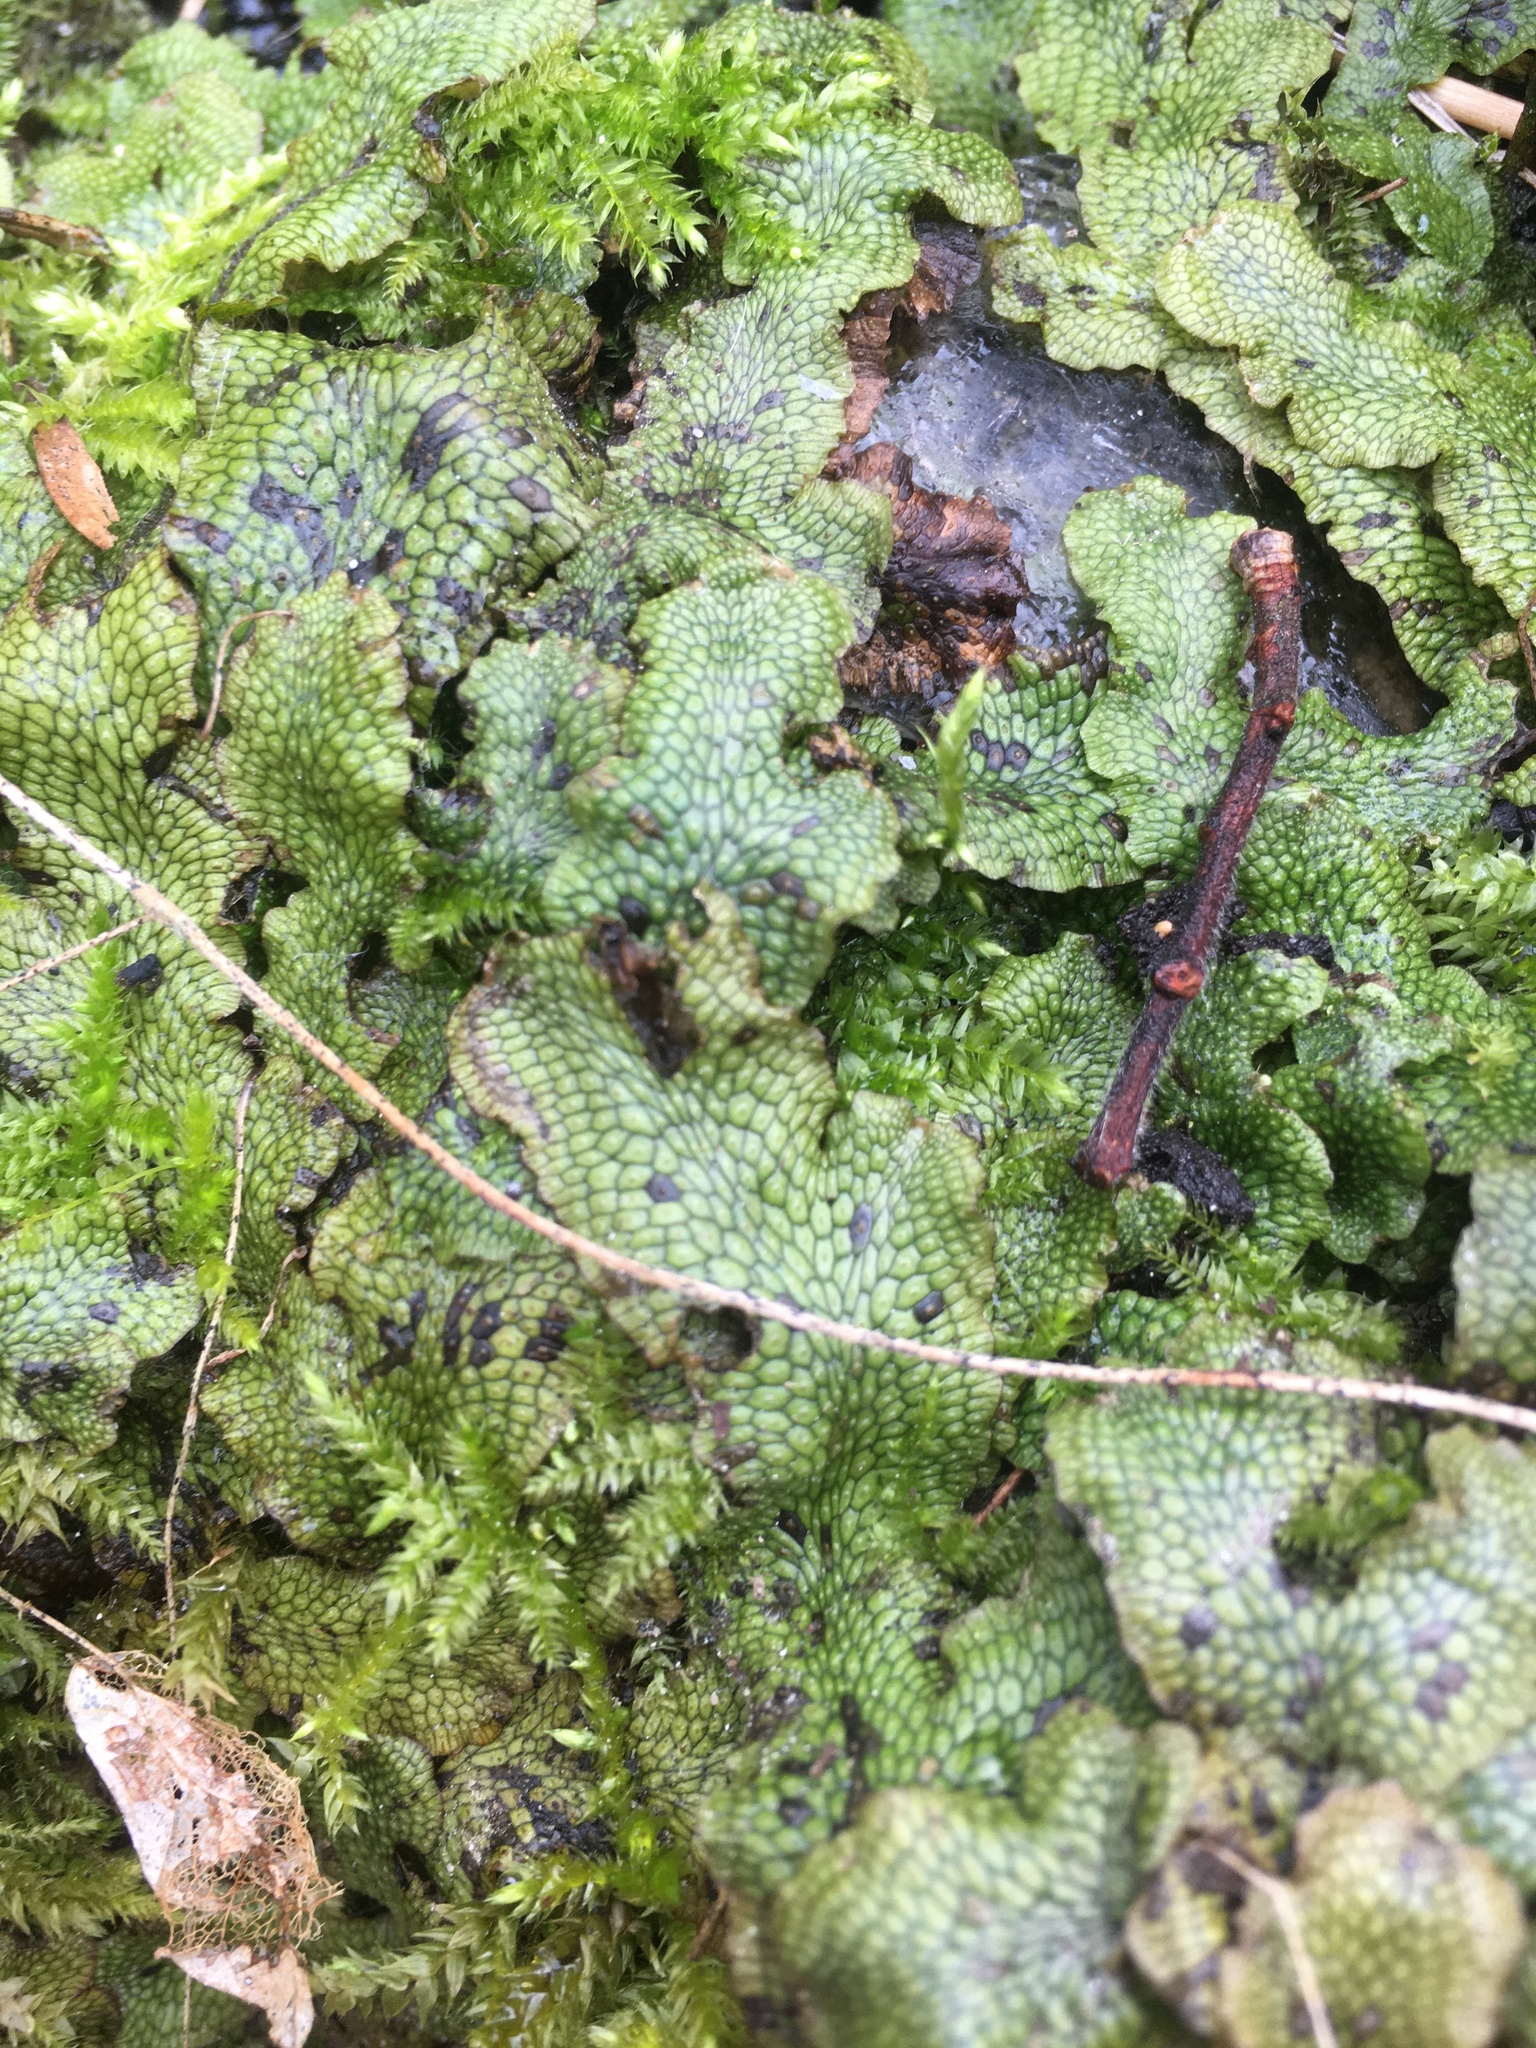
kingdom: Plantae
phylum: Marchantiophyta
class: Marchantiopsida
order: Marchantiales
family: Conocephalaceae
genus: Conocephalum
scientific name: Conocephalum salebrosum
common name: Cat-tongue liverwort
